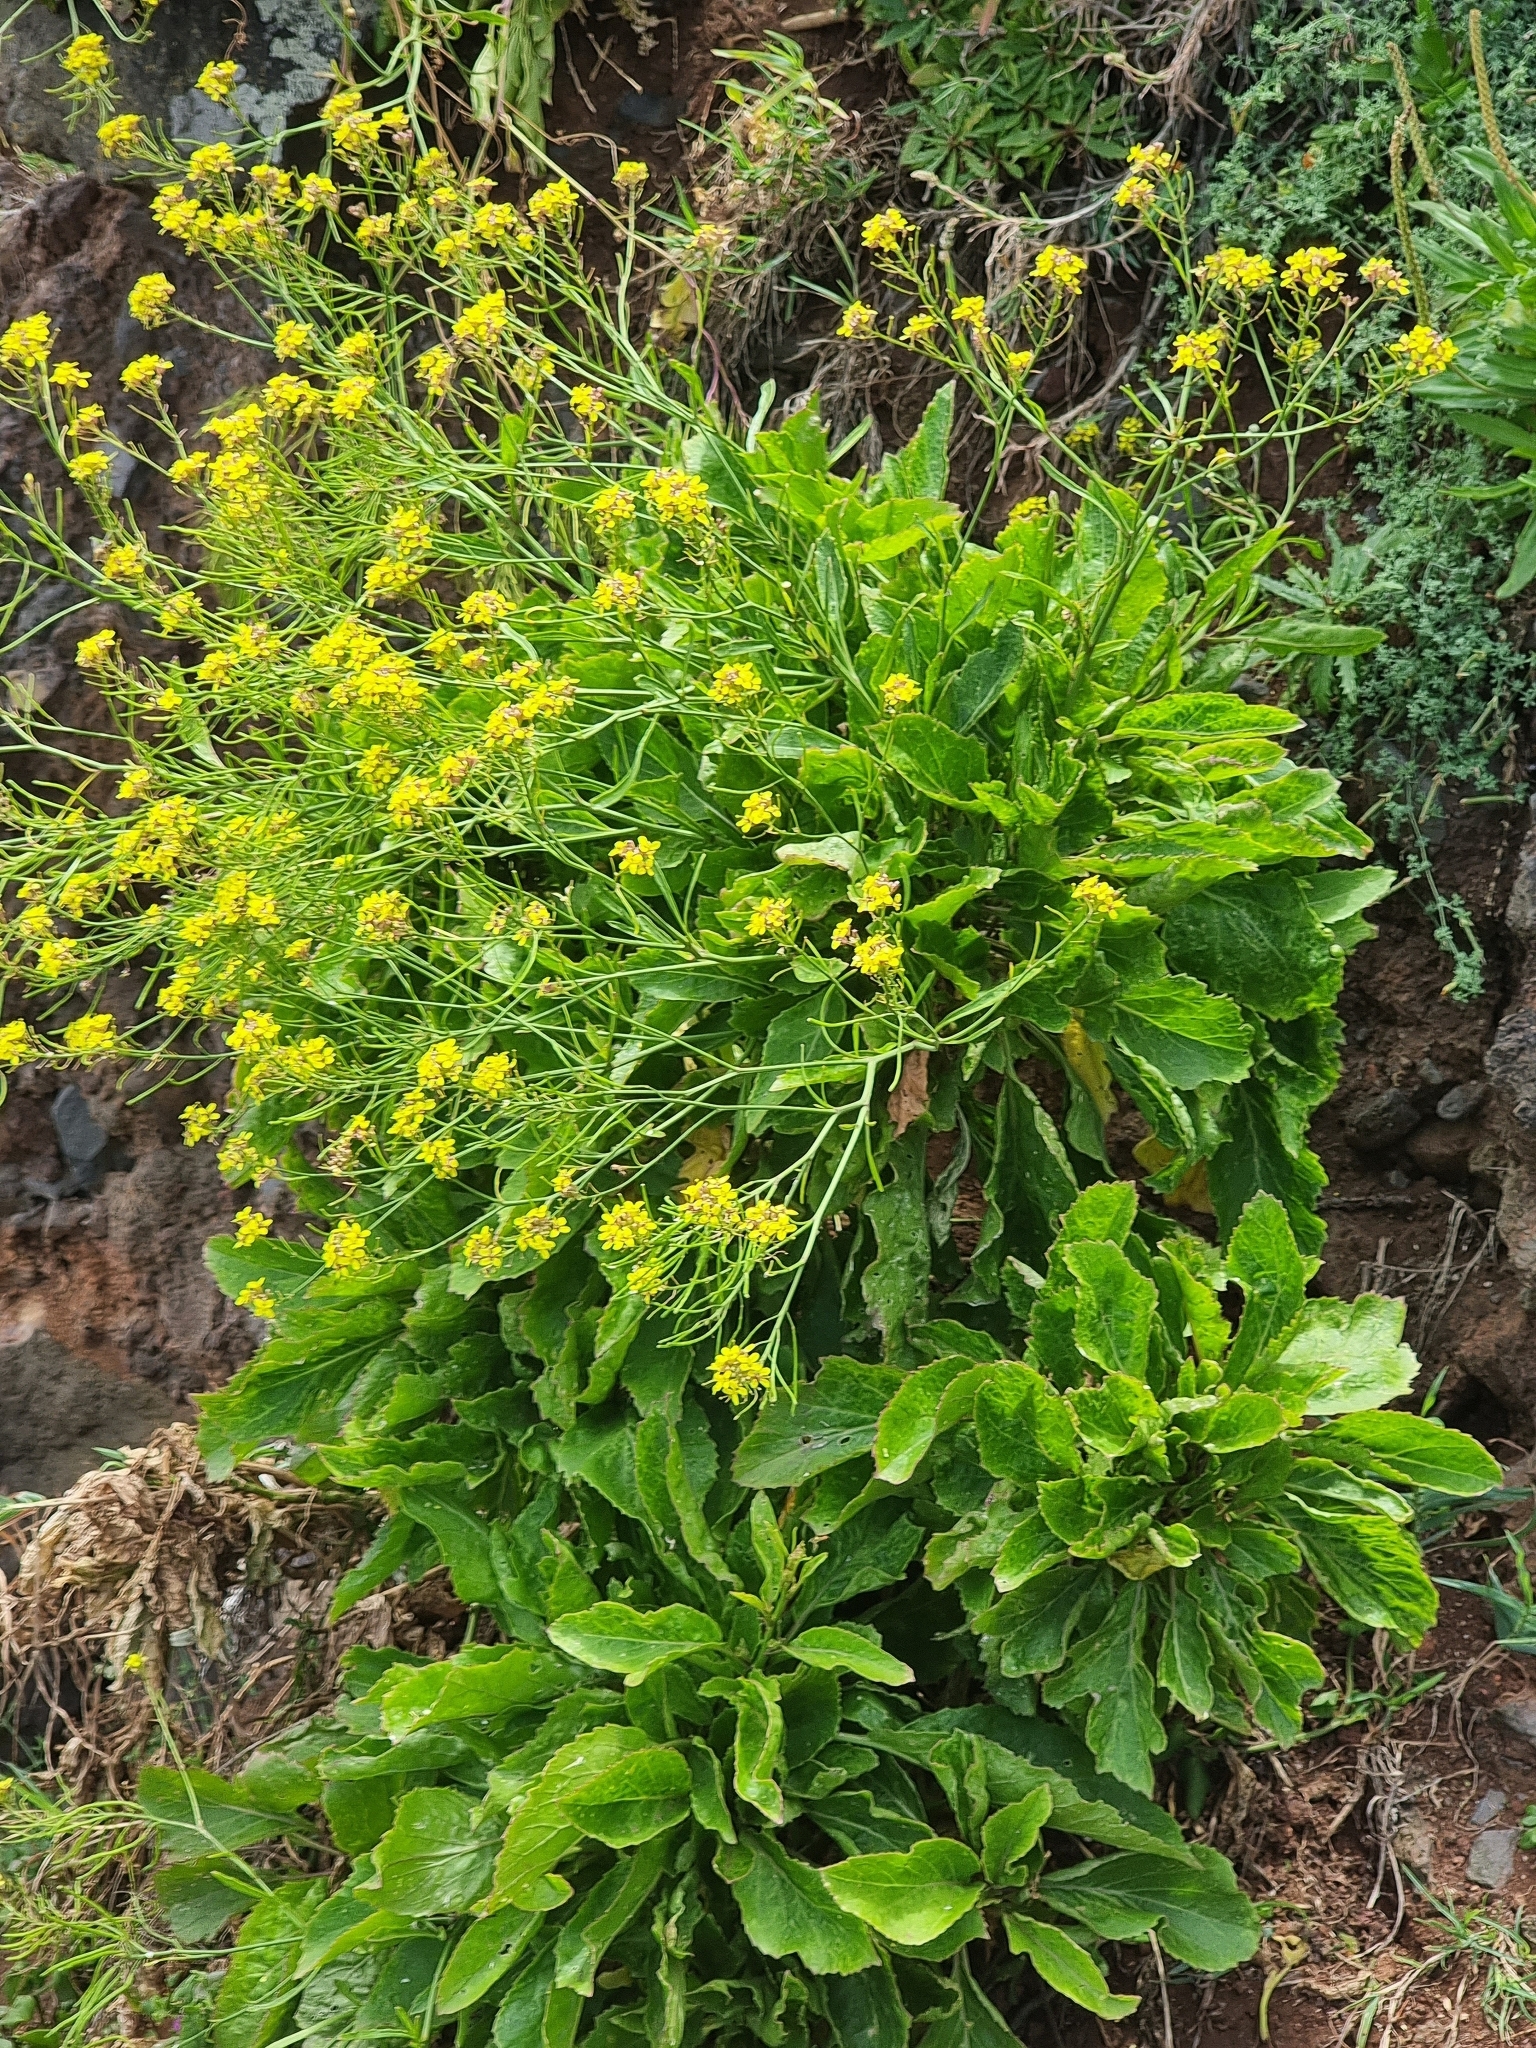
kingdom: Plantae
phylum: Tracheophyta
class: Magnoliopsida
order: Brassicales
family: Brassicaceae
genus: Sinapidendron
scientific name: Sinapidendron rupestre
